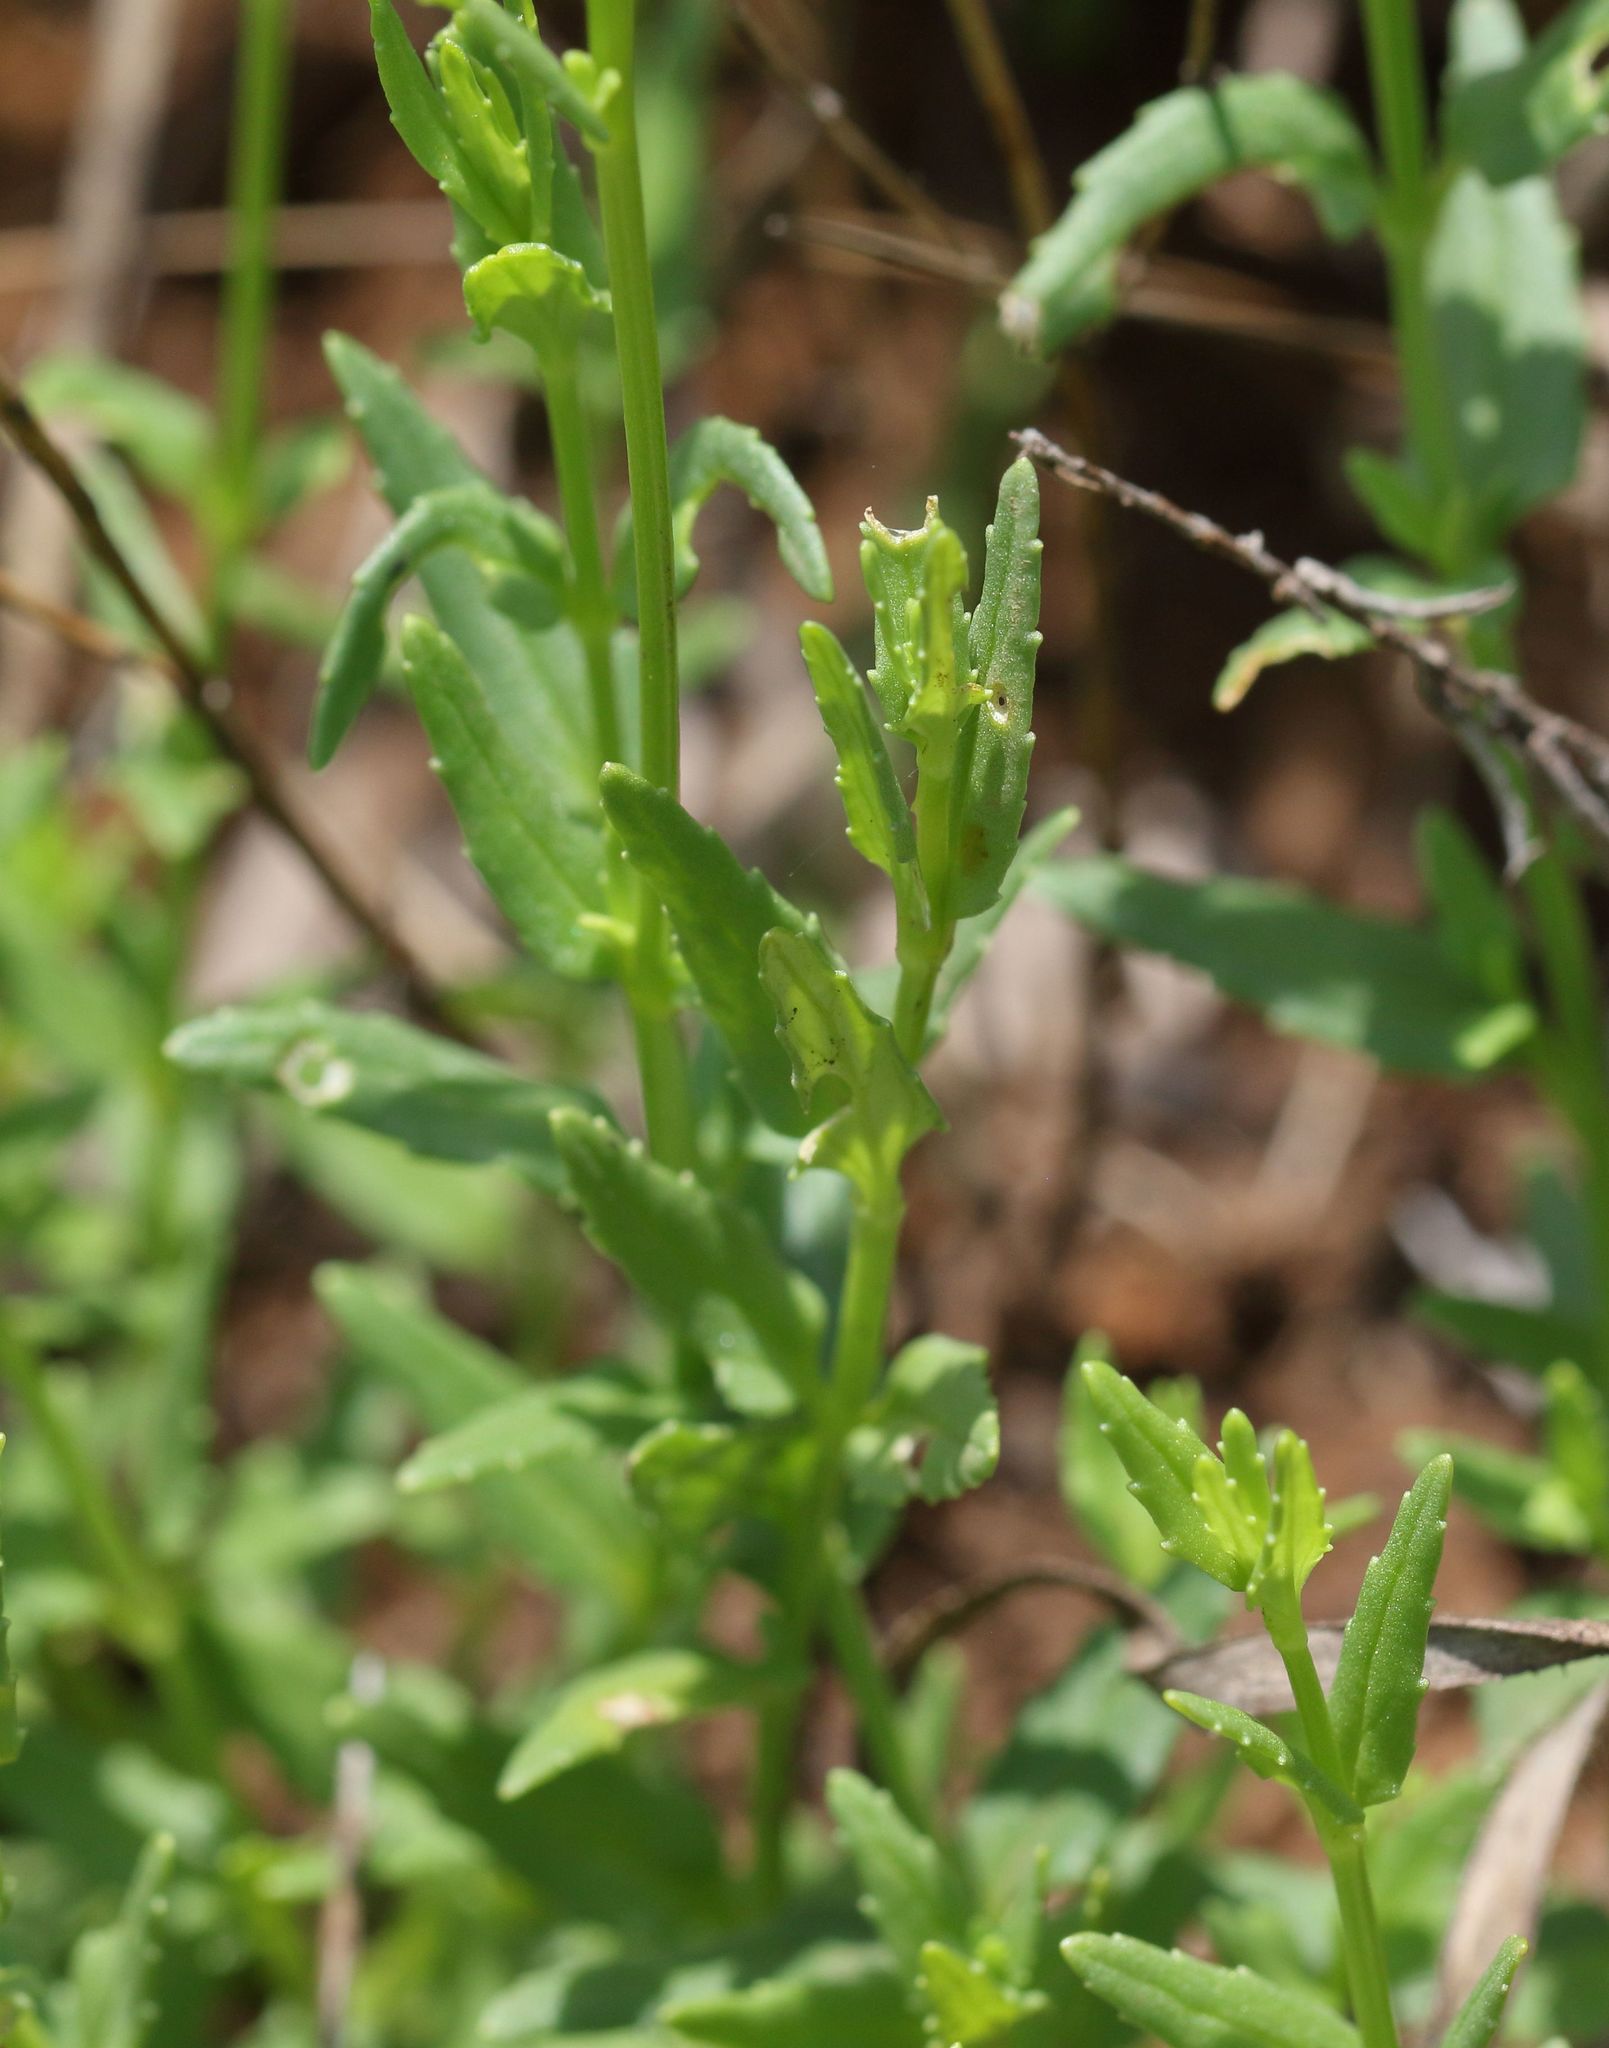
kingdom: Plantae
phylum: Tracheophyta
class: Magnoliopsida
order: Lamiales
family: Scrophulariaceae
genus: Nemesia
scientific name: Nemesia fruticans
